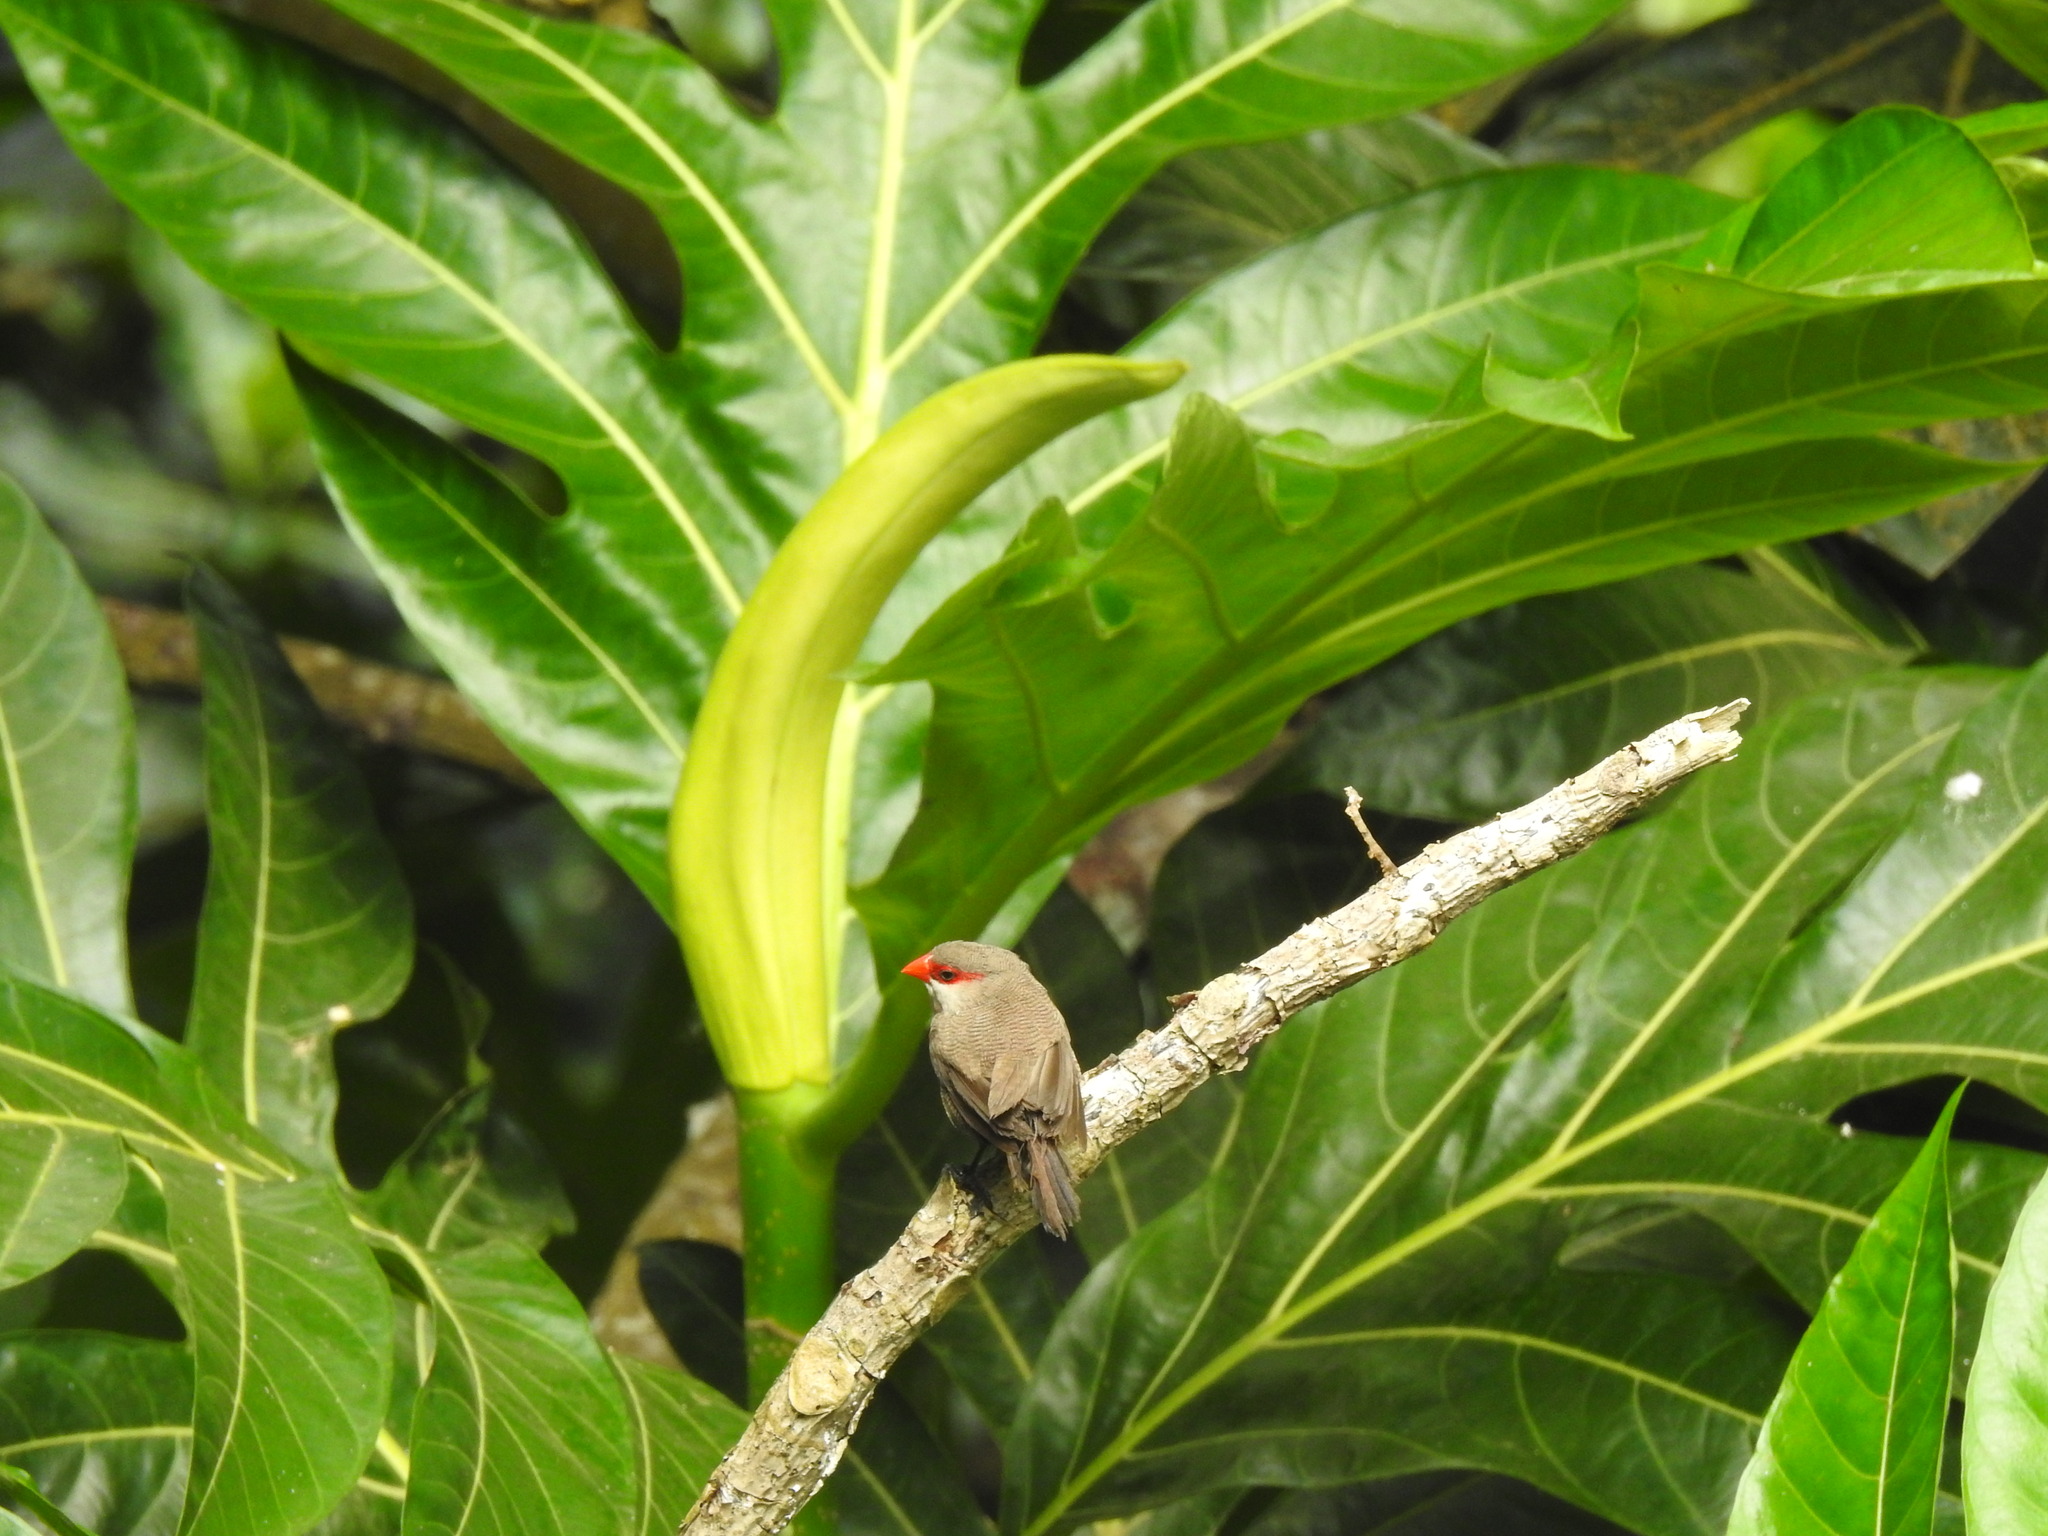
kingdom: Animalia
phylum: Chordata
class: Aves
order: Passeriformes
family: Estrildidae
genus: Estrilda
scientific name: Estrilda astrild
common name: Common waxbill
